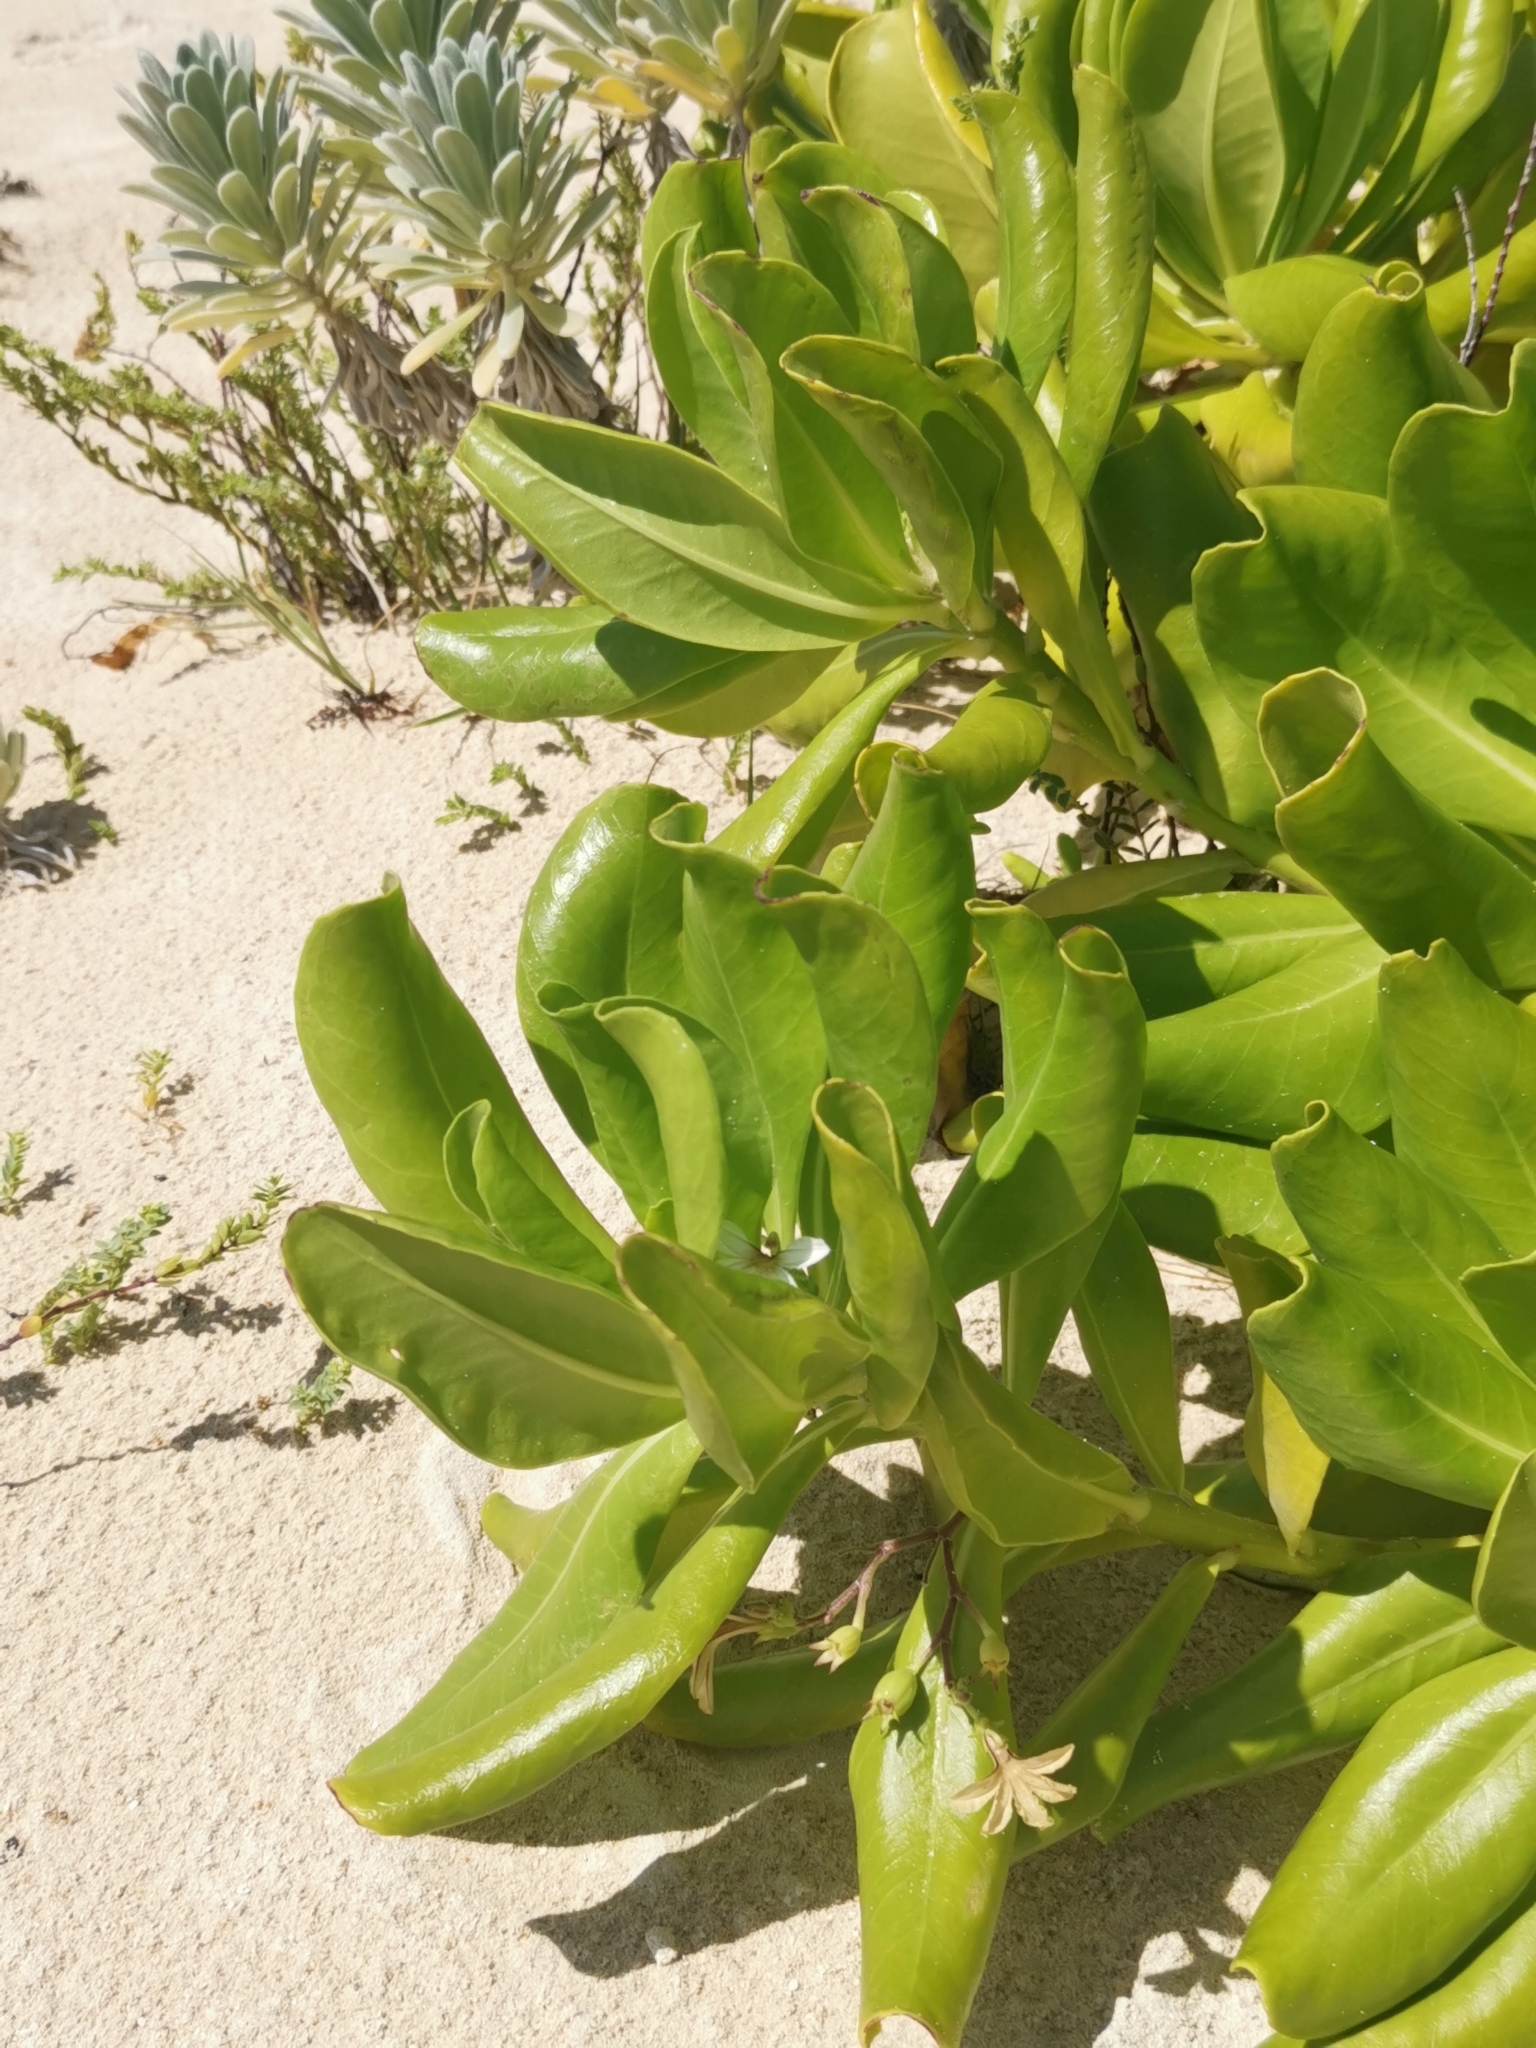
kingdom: Plantae
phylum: Tracheophyta
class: Magnoliopsida
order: Asterales
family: Goodeniaceae
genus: Scaevola
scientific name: Scaevola taccada
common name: Sea lettucetree
